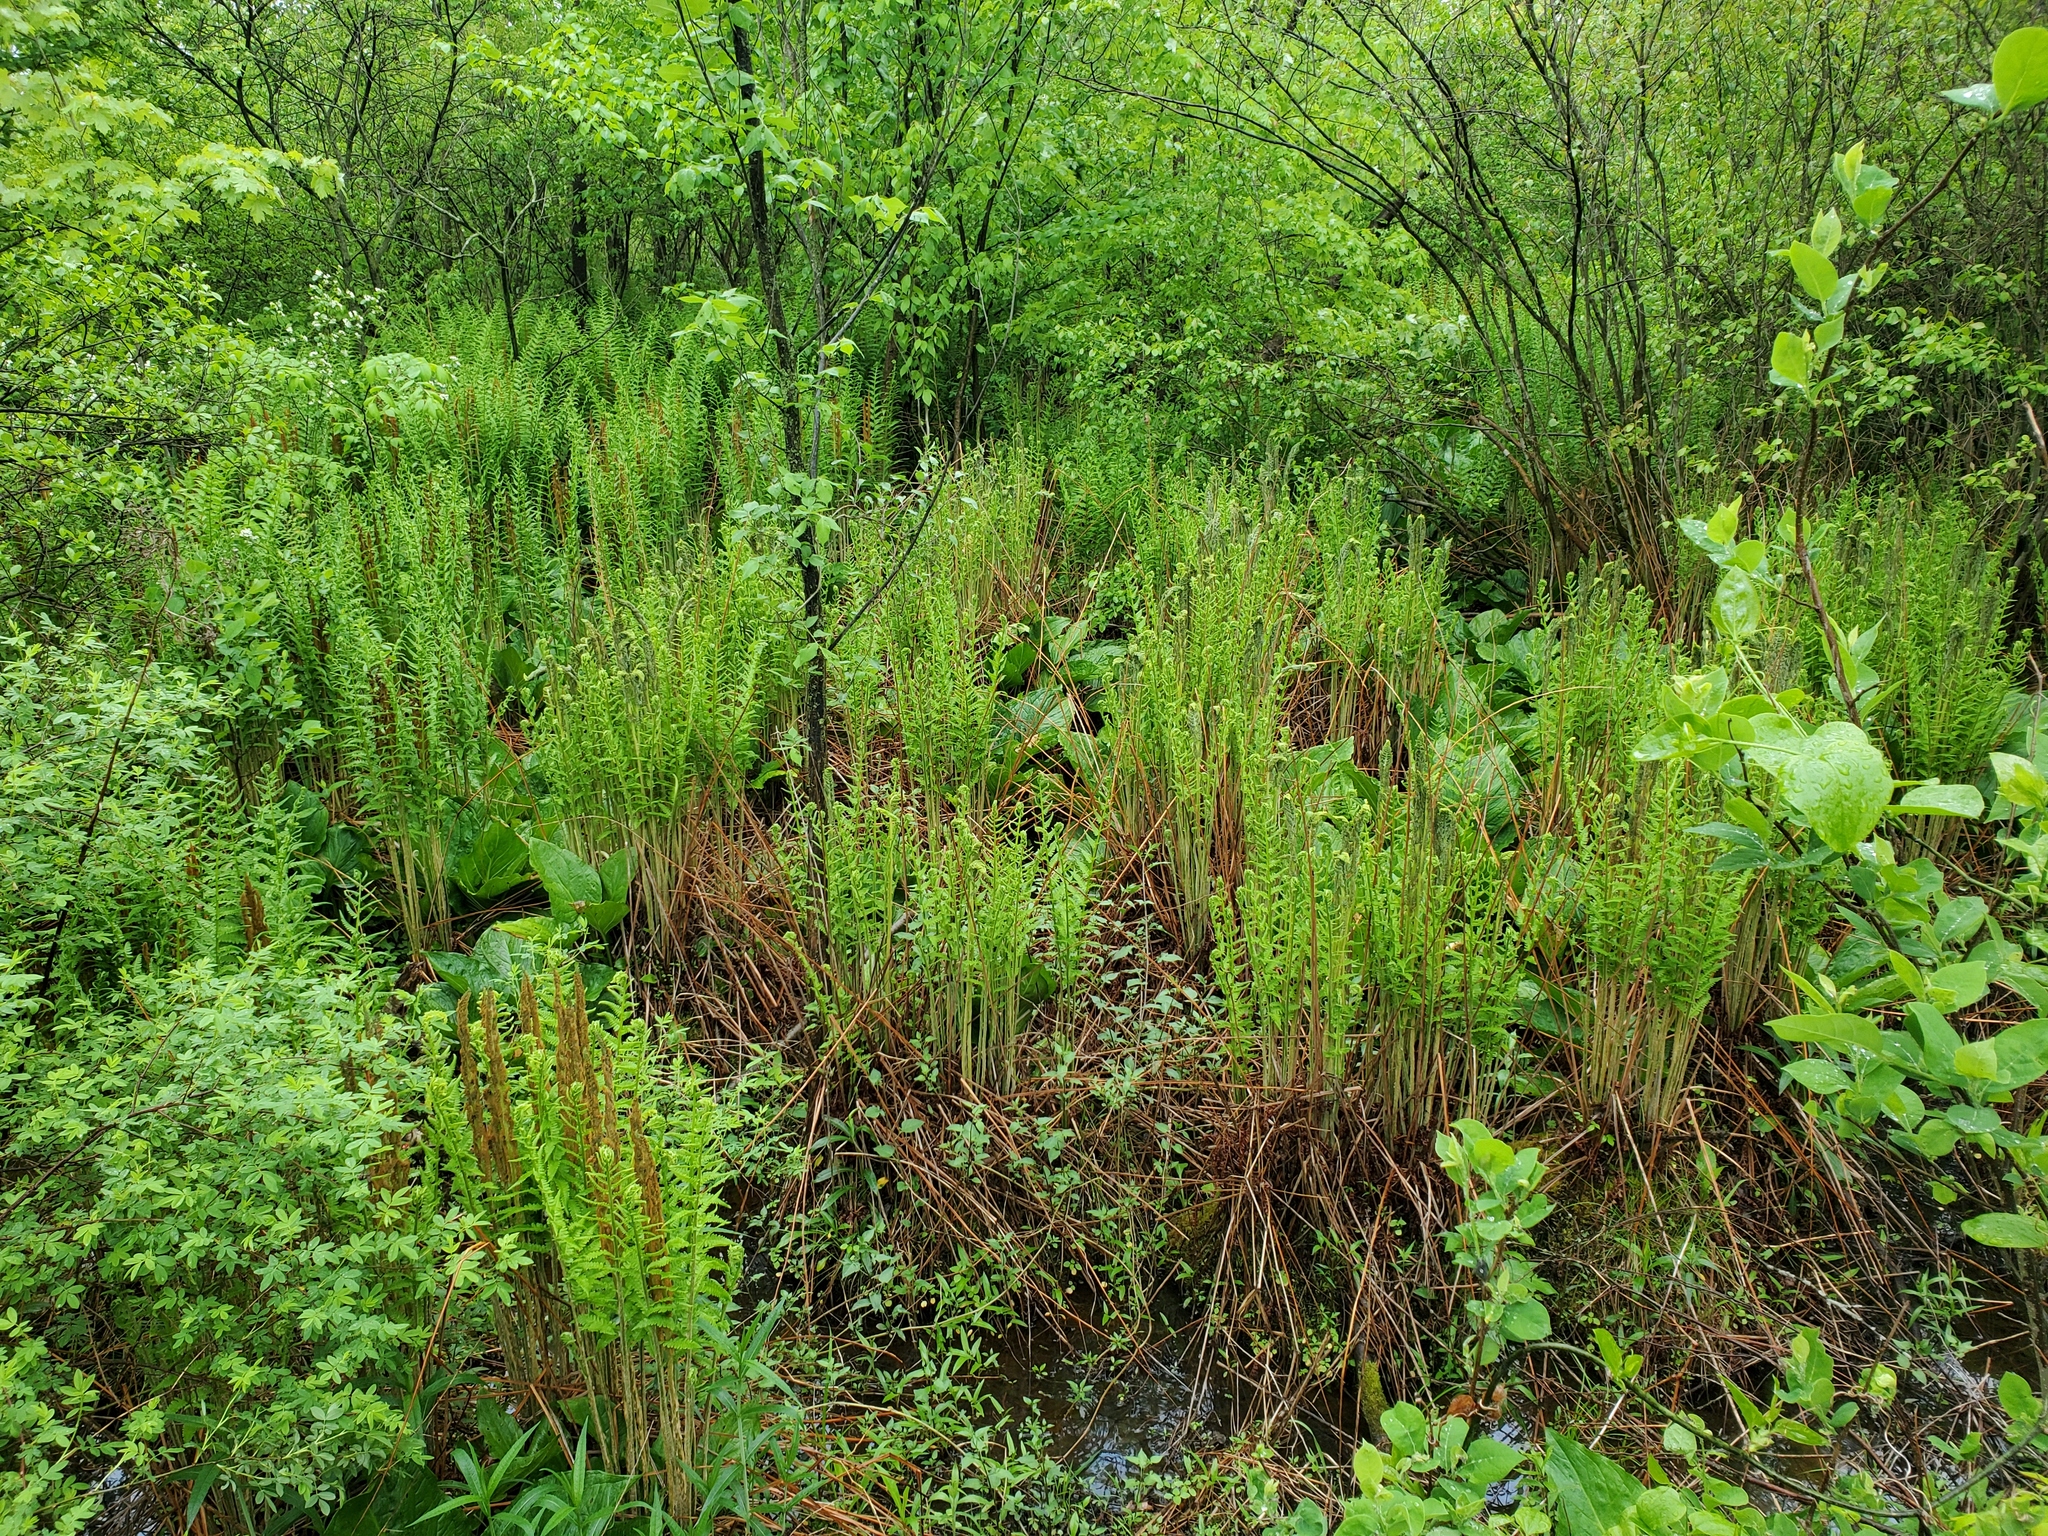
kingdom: Plantae
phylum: Tracheophyta
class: Polypodiopsida
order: Osmundales
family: Osmundaceae
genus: Osmundastrum
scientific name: Osmundastrum cinnamomeum
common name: Cinnamon fern
